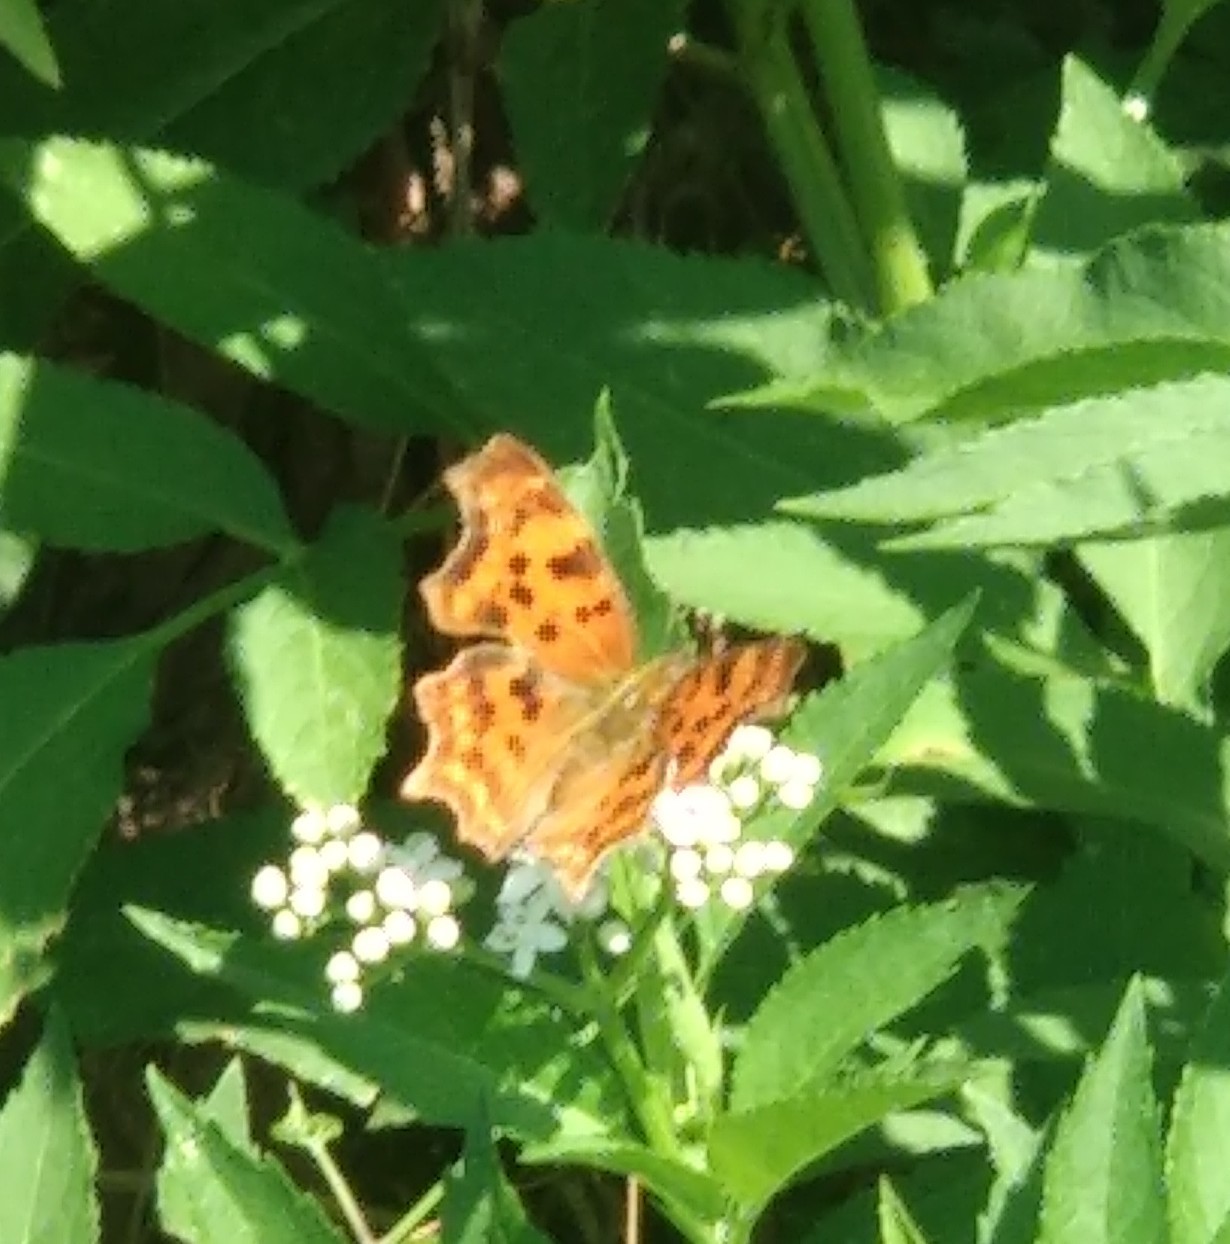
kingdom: Animalia
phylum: Arthropoda
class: Insecta
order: Lepidoptera
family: Nymphalidae
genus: Polygonia
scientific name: Polygonia c-album
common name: Comma
